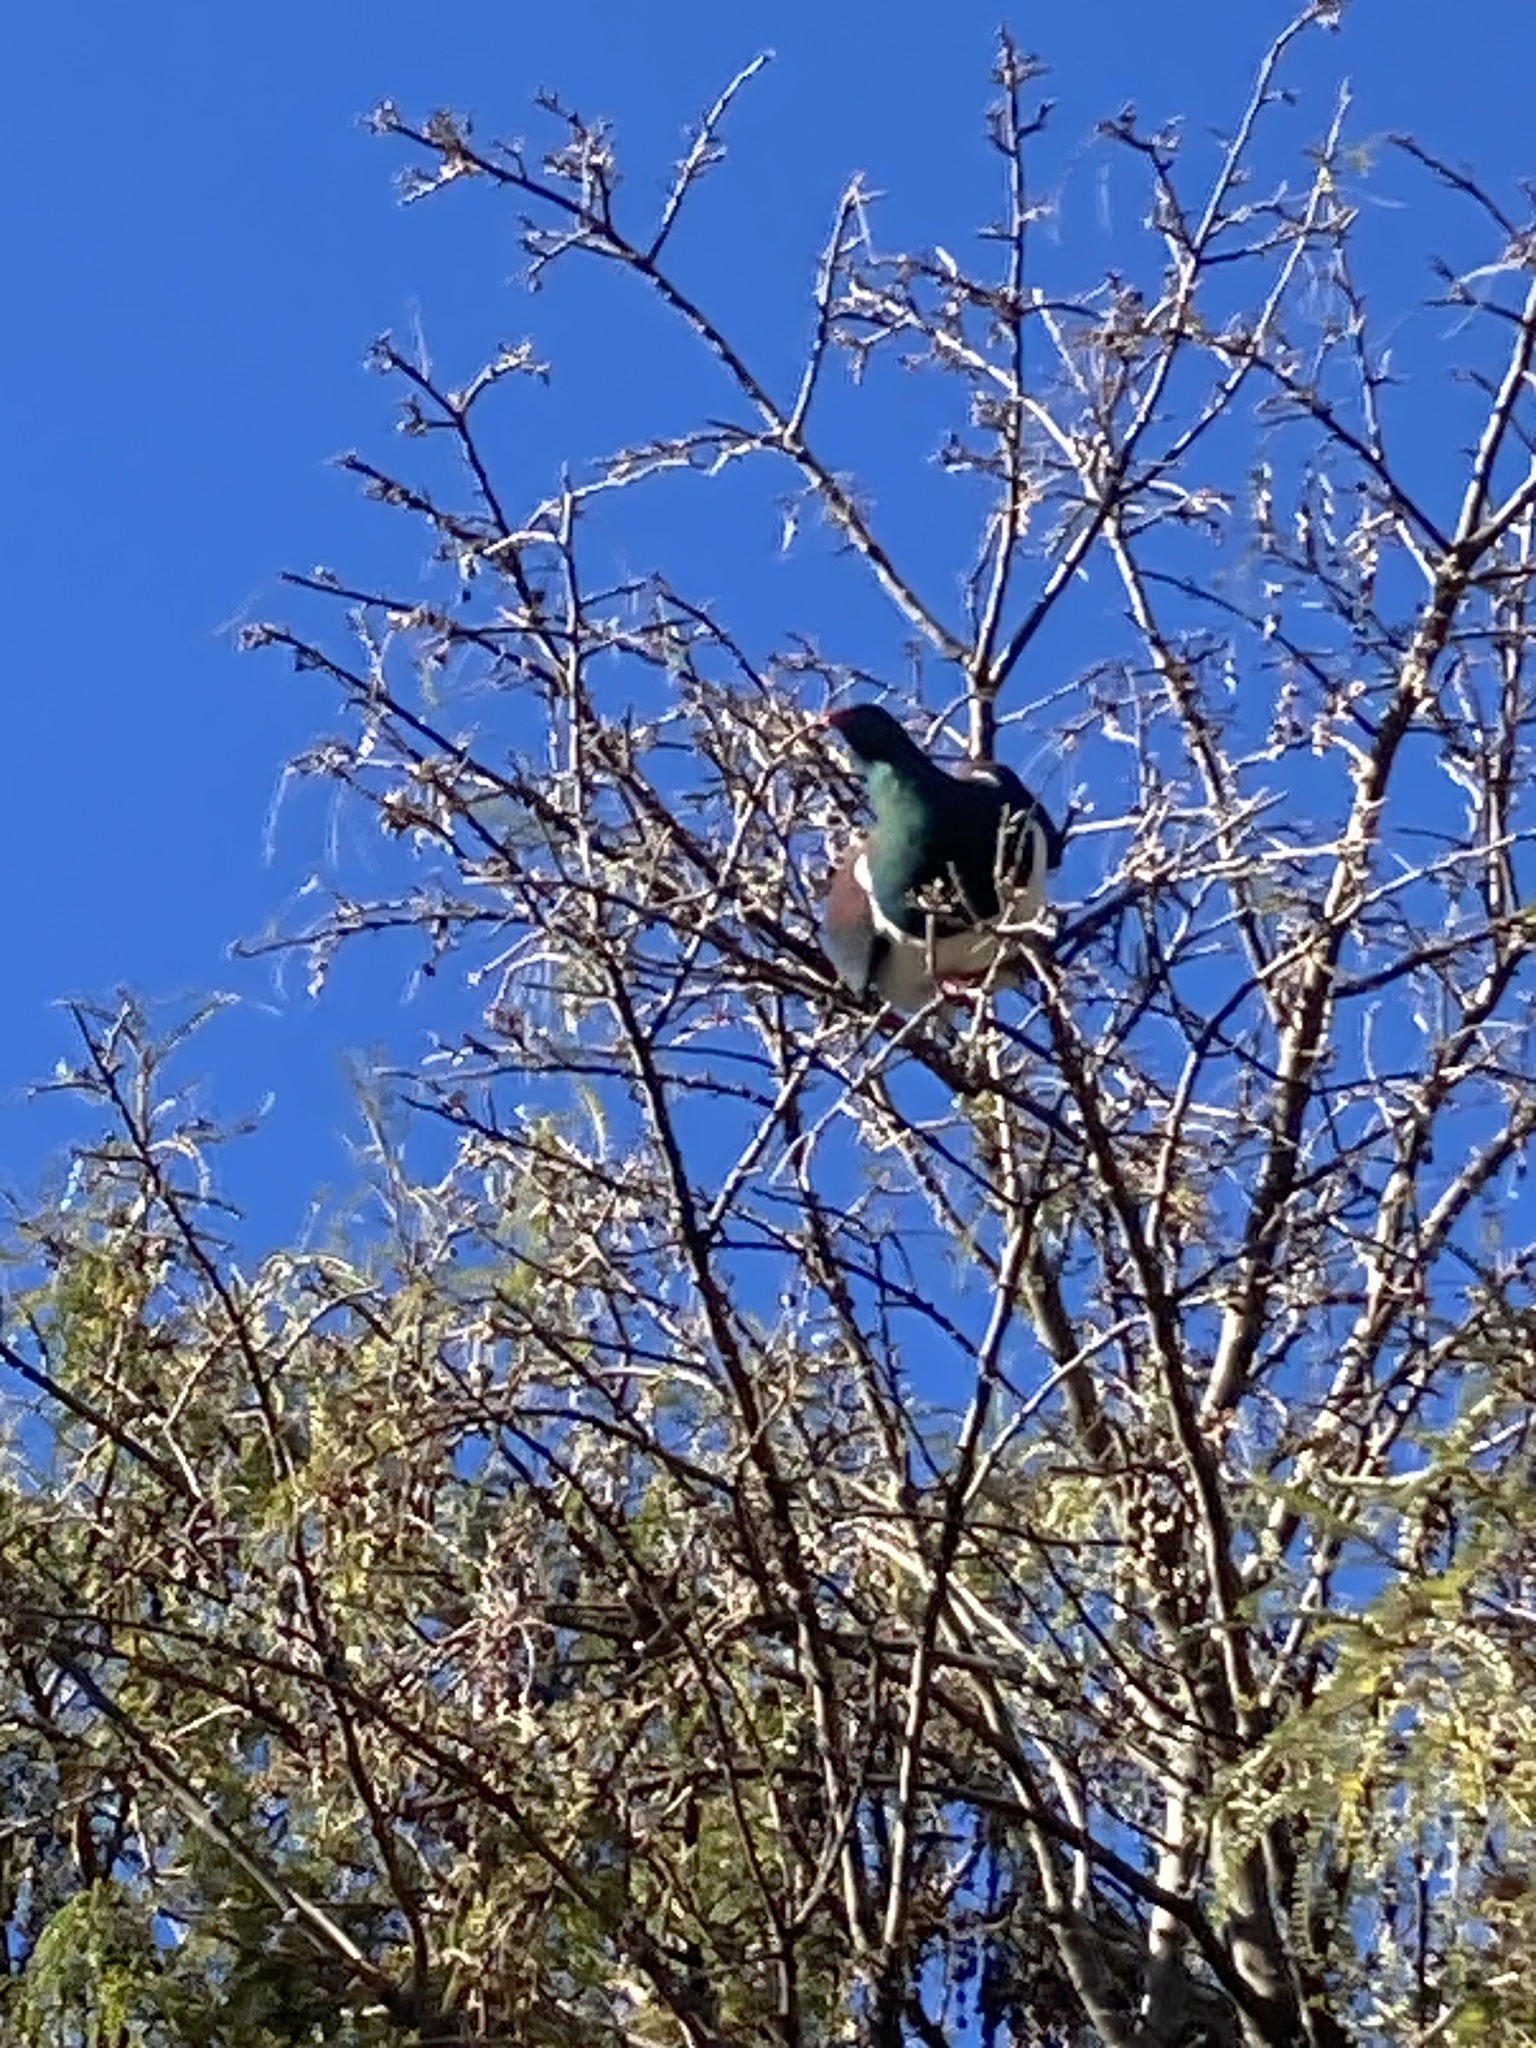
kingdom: Animalia
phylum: Chordata
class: Aves
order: Columbiformes
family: Columbidae
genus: Hemiphaga
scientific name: Hemiphaga novaeseelandiae
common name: New zealand pigeon
